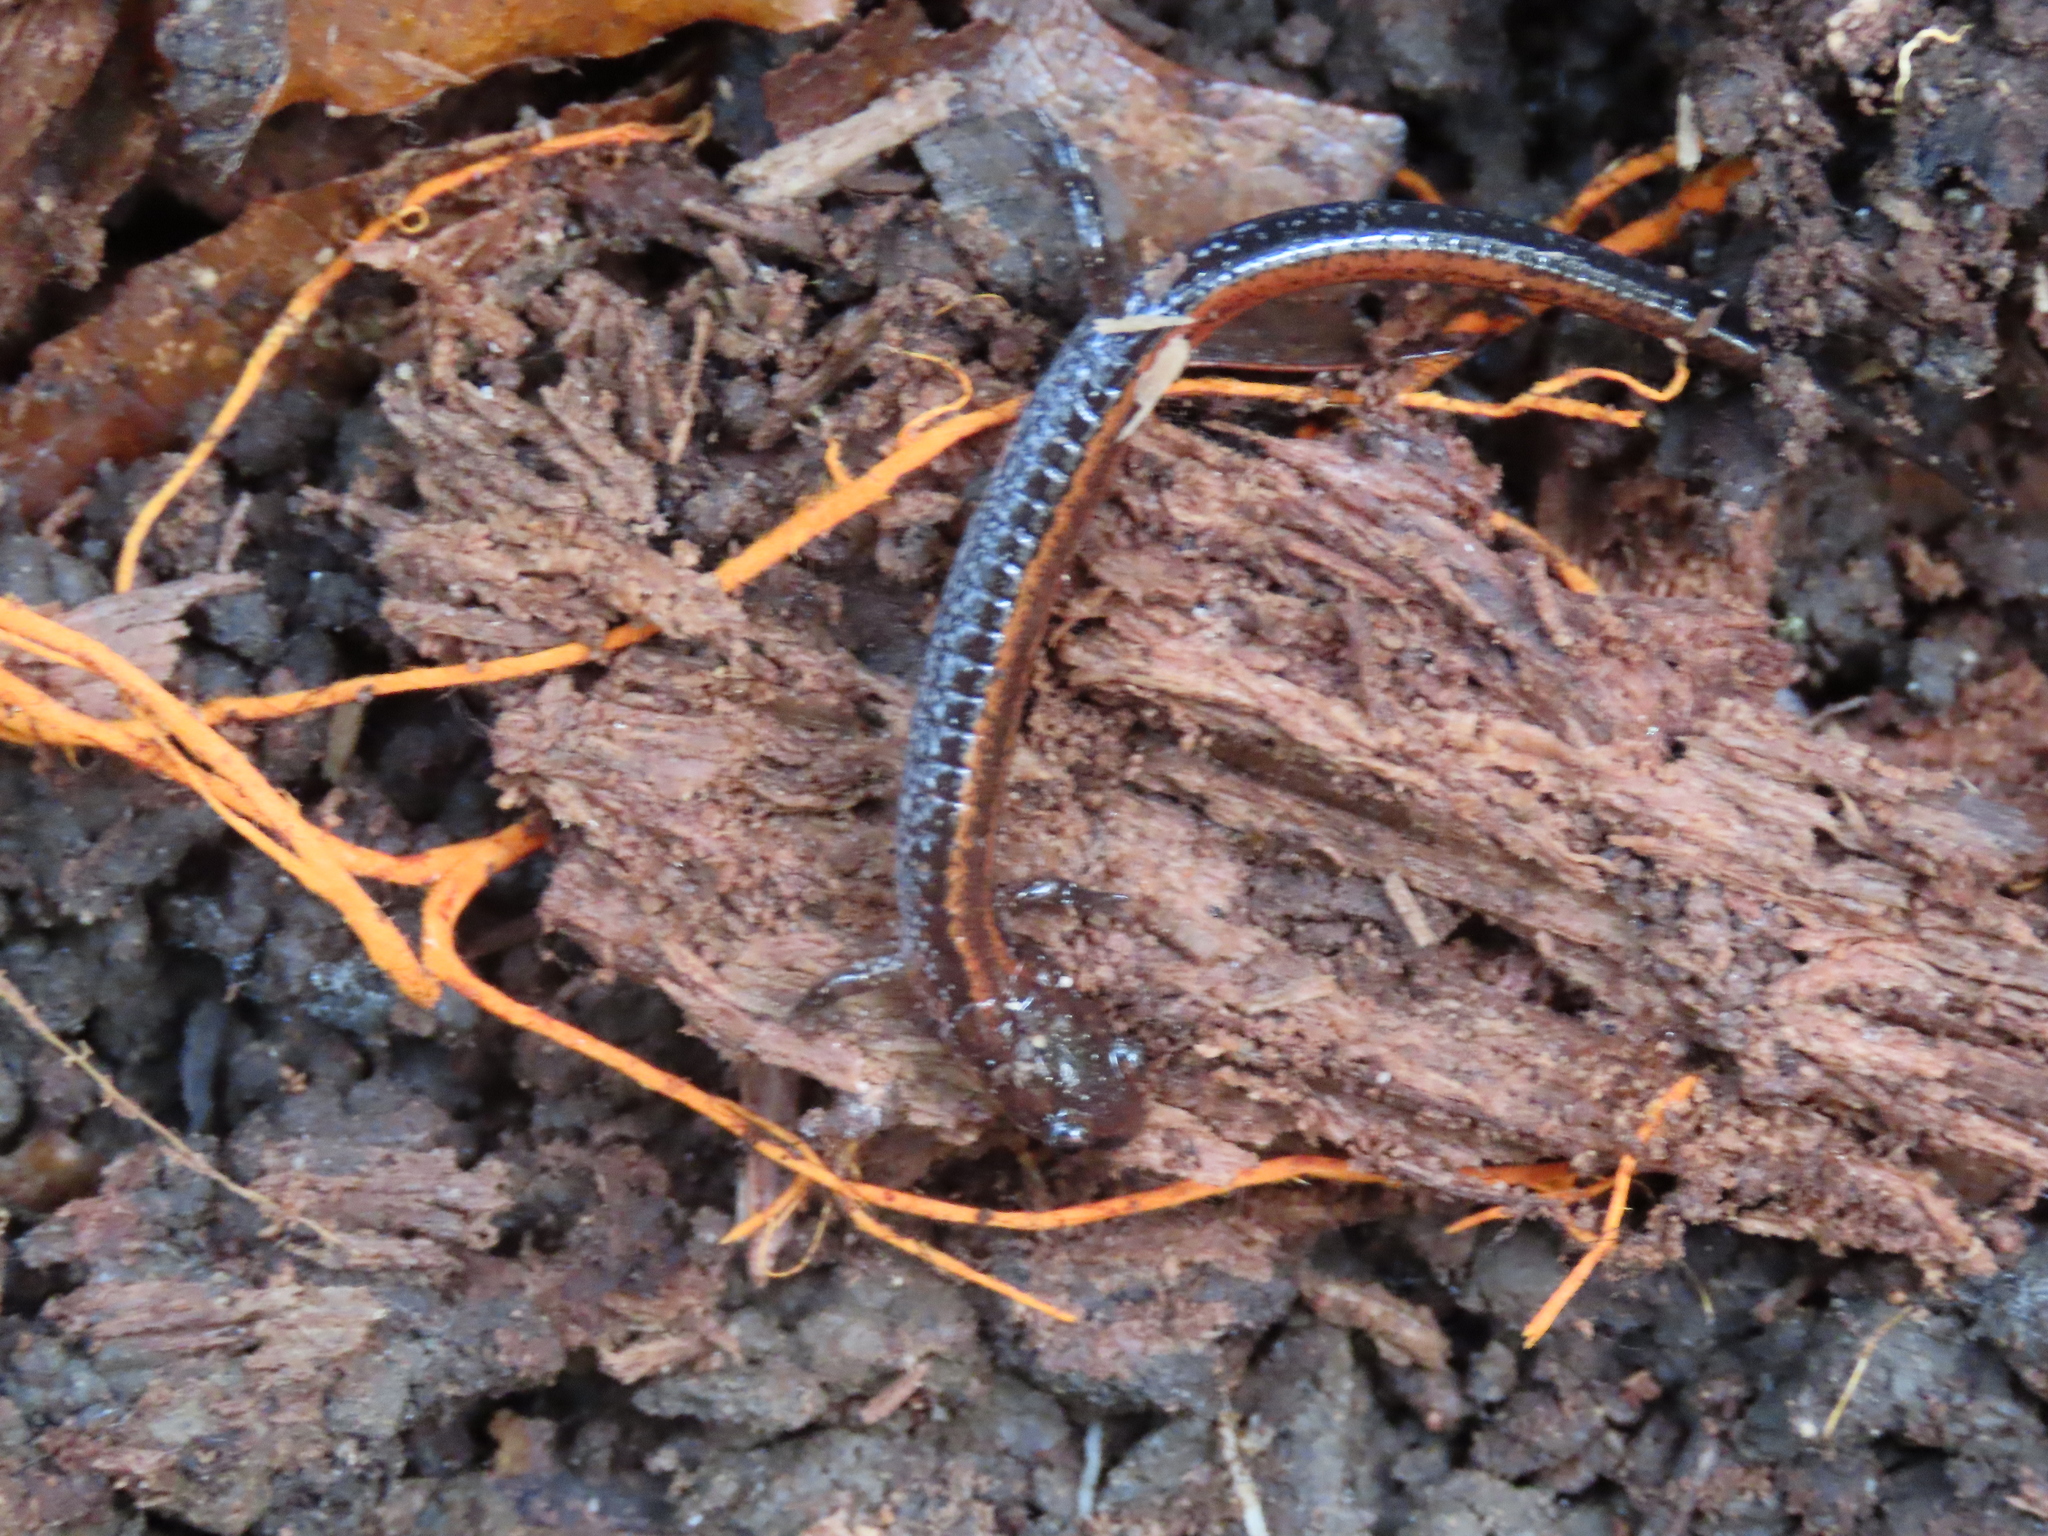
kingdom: Animalia
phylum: Chordata
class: Amphibia
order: Caudata
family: Plethodontidae
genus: Plethodon
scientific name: Plethodon cinereus
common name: Redback salamander
